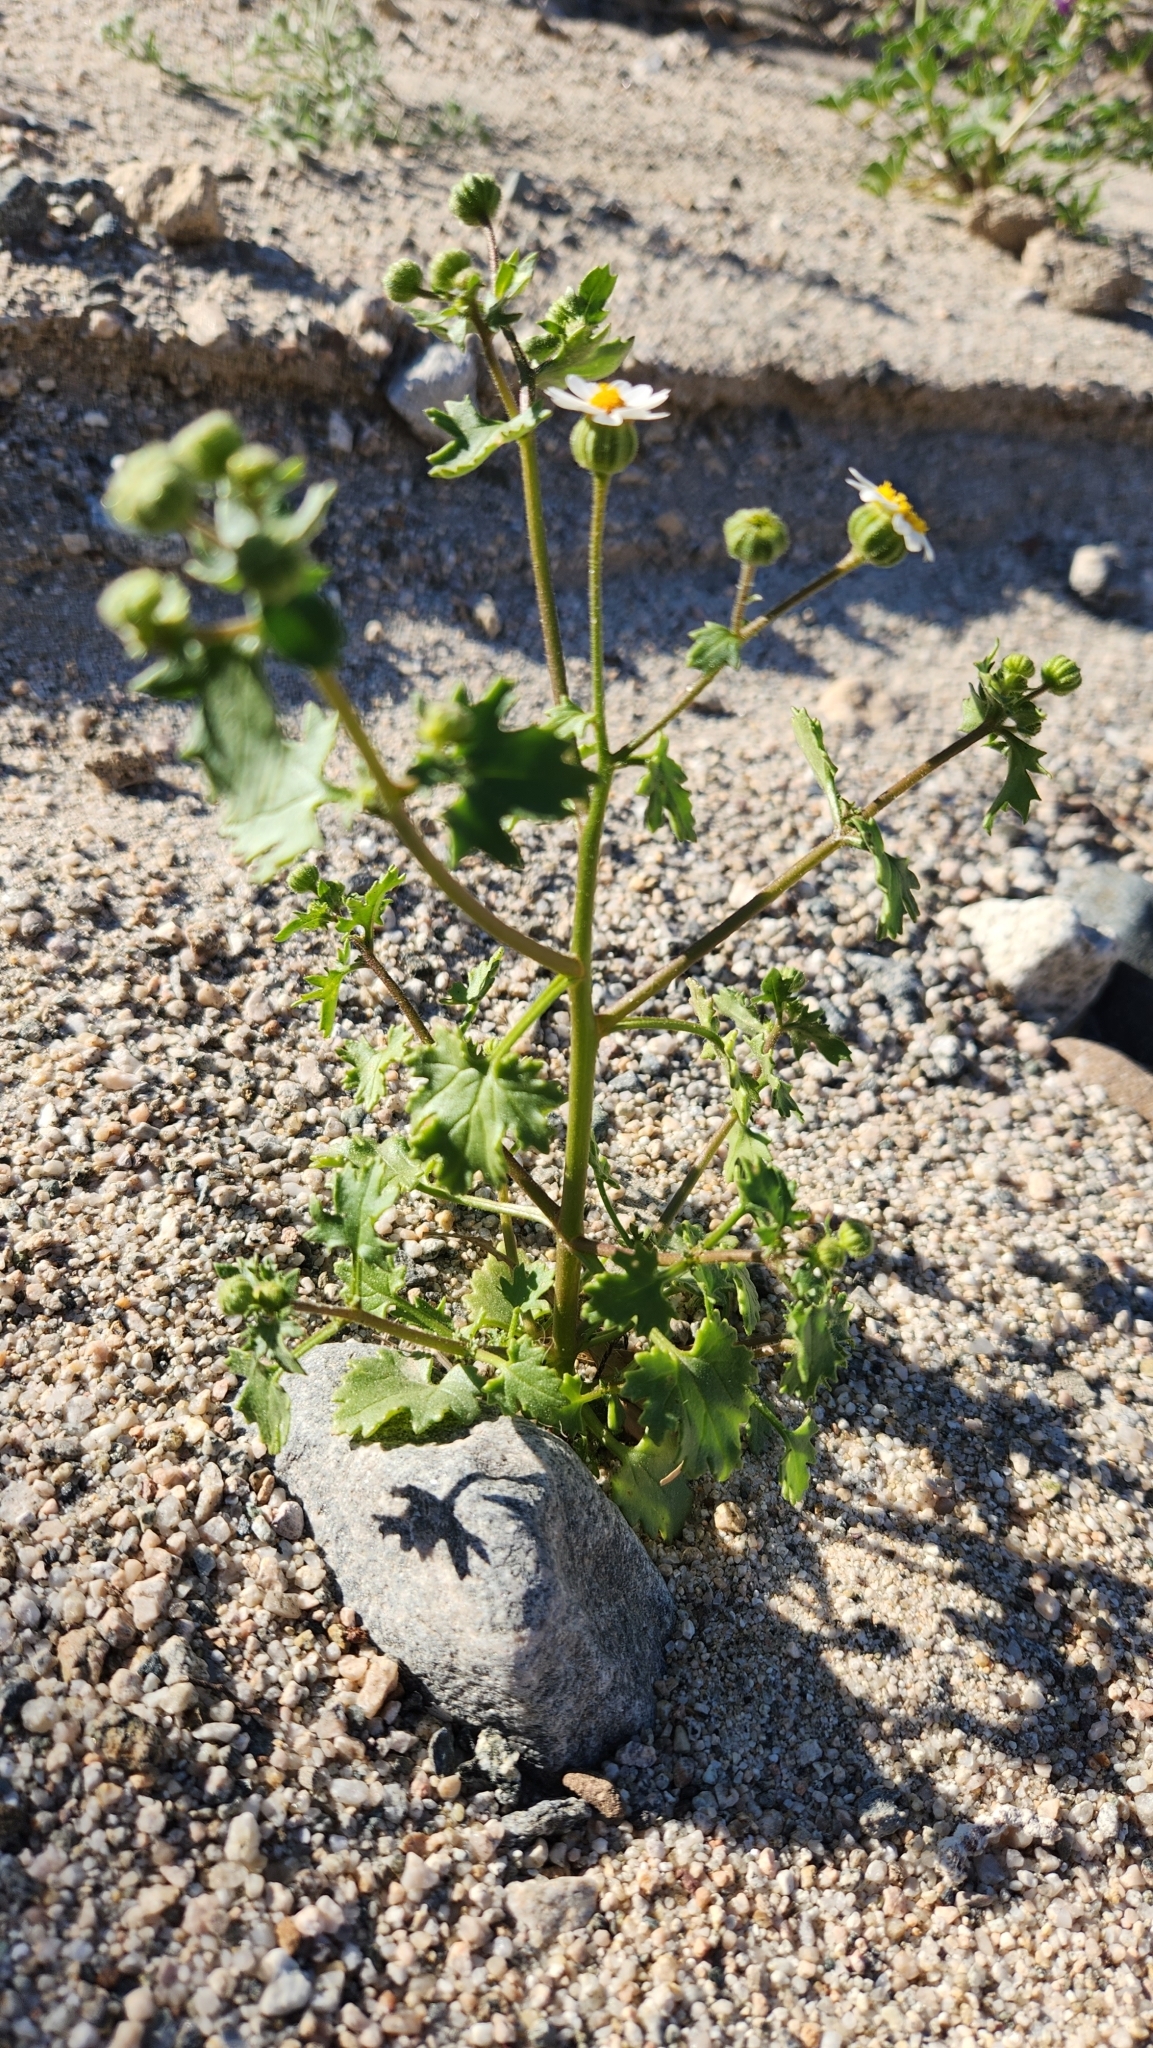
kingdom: Plantae
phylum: Tracheophyta
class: Magnoliopsida
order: Asterales
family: Asteraceae
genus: Laphamia
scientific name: Laphamia emoryi
